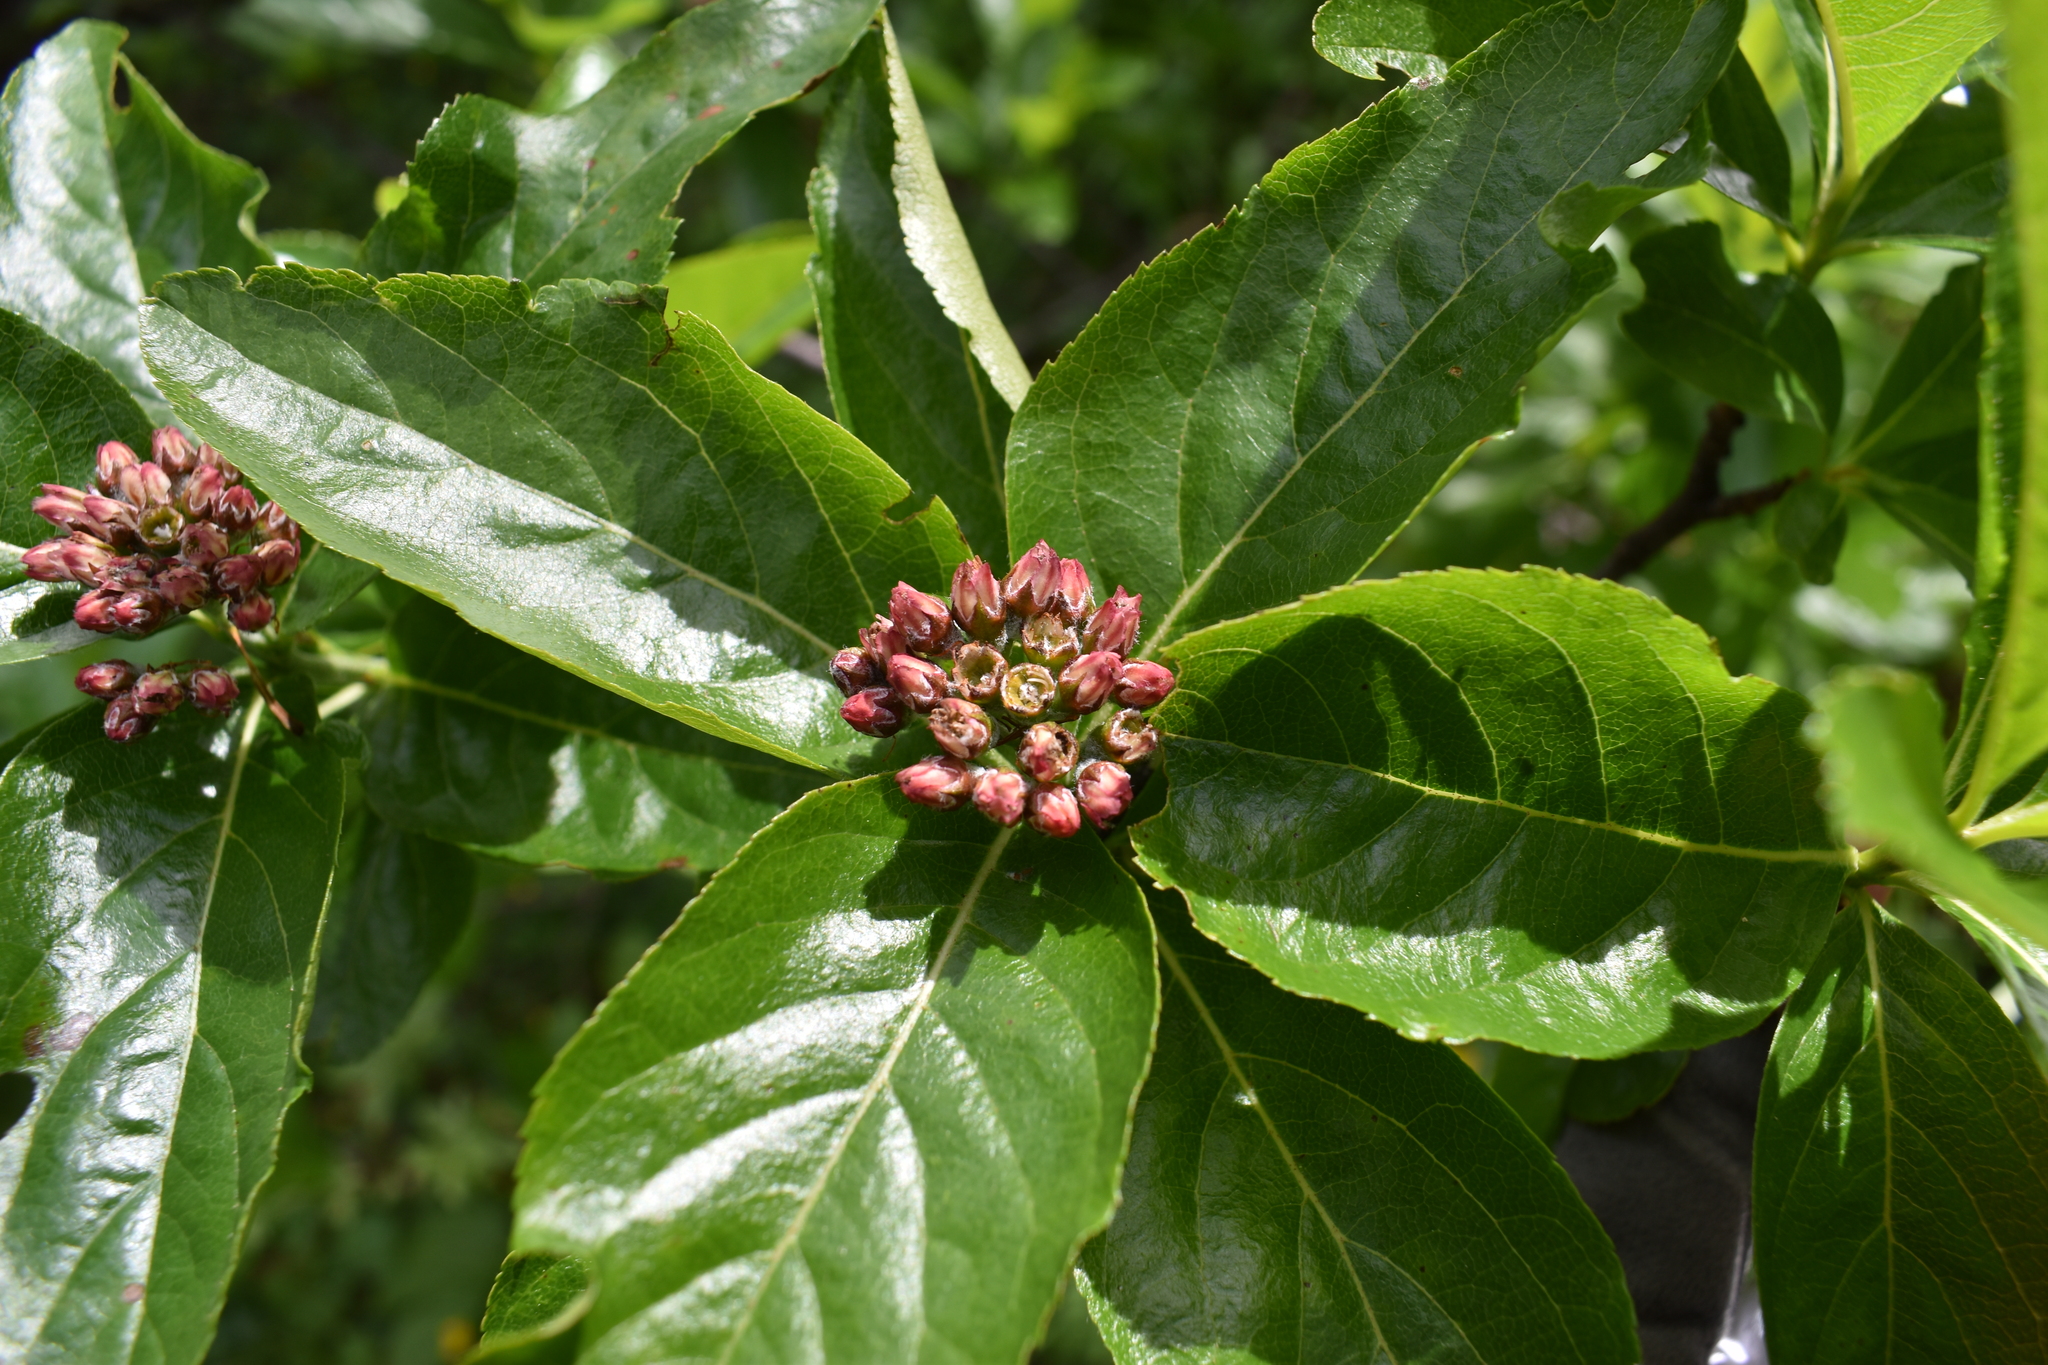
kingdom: Plantae
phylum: Tracheophyta
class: Magnoliopsida
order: Rosales
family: Rosaceae
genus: Chamaemespilus
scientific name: Chamaemespilus alpina
